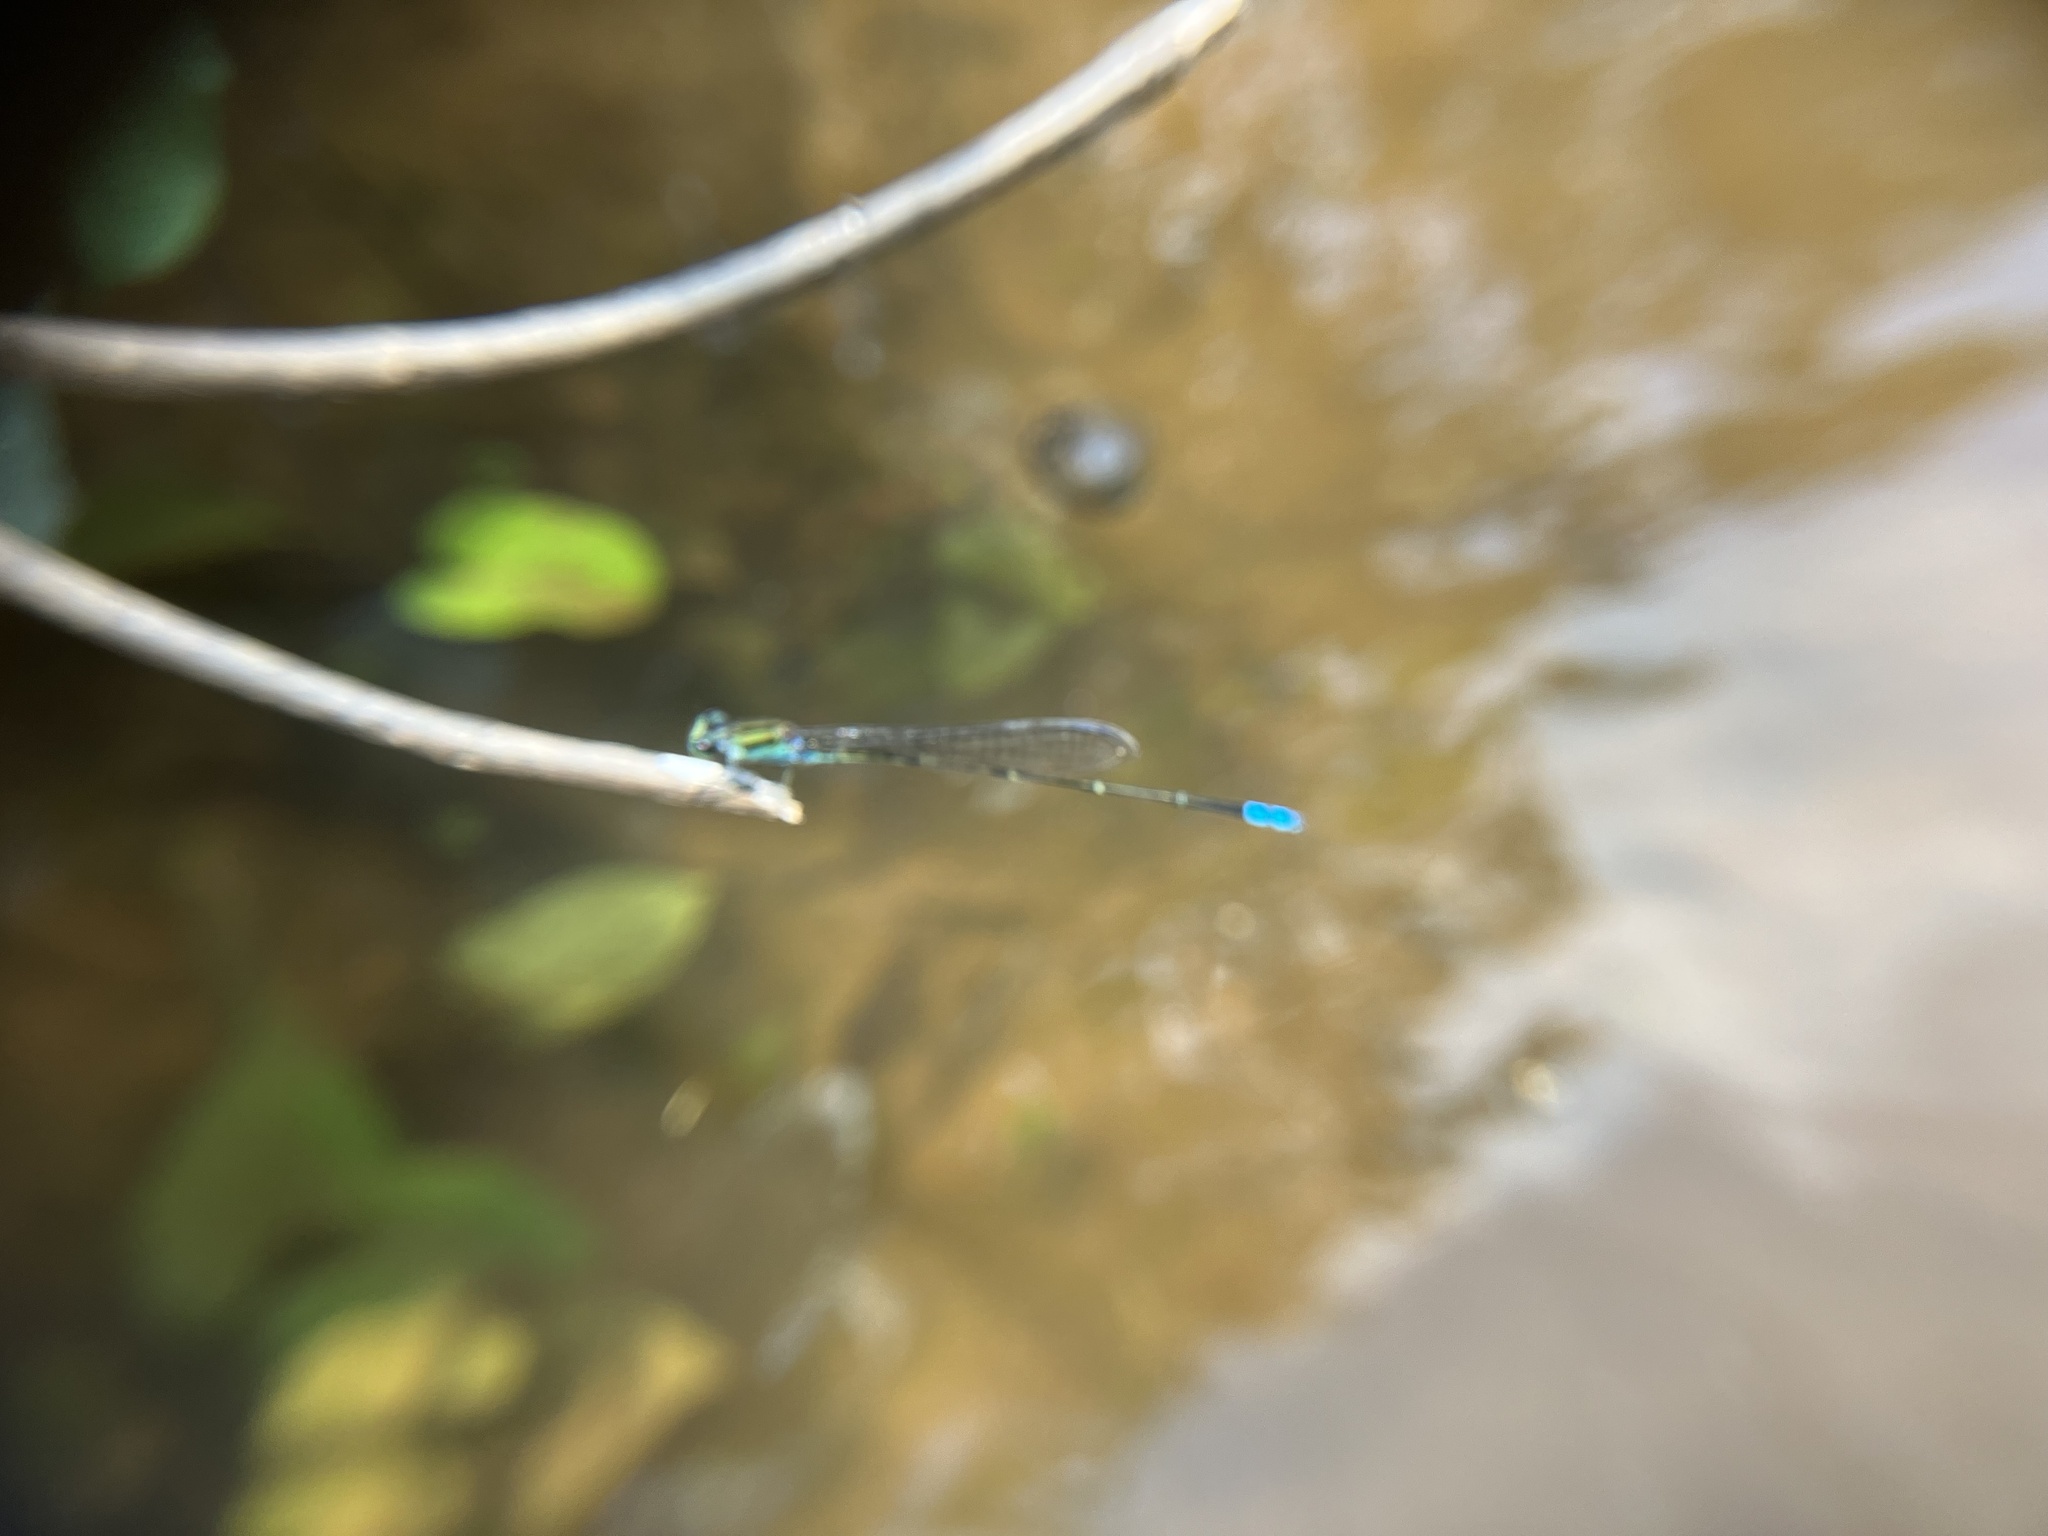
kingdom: Animalia
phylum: Arthropoda
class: Insecta
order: Odonata
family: Coenagrionidae
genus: Pseudagrion
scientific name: Pseudagrion indicum
